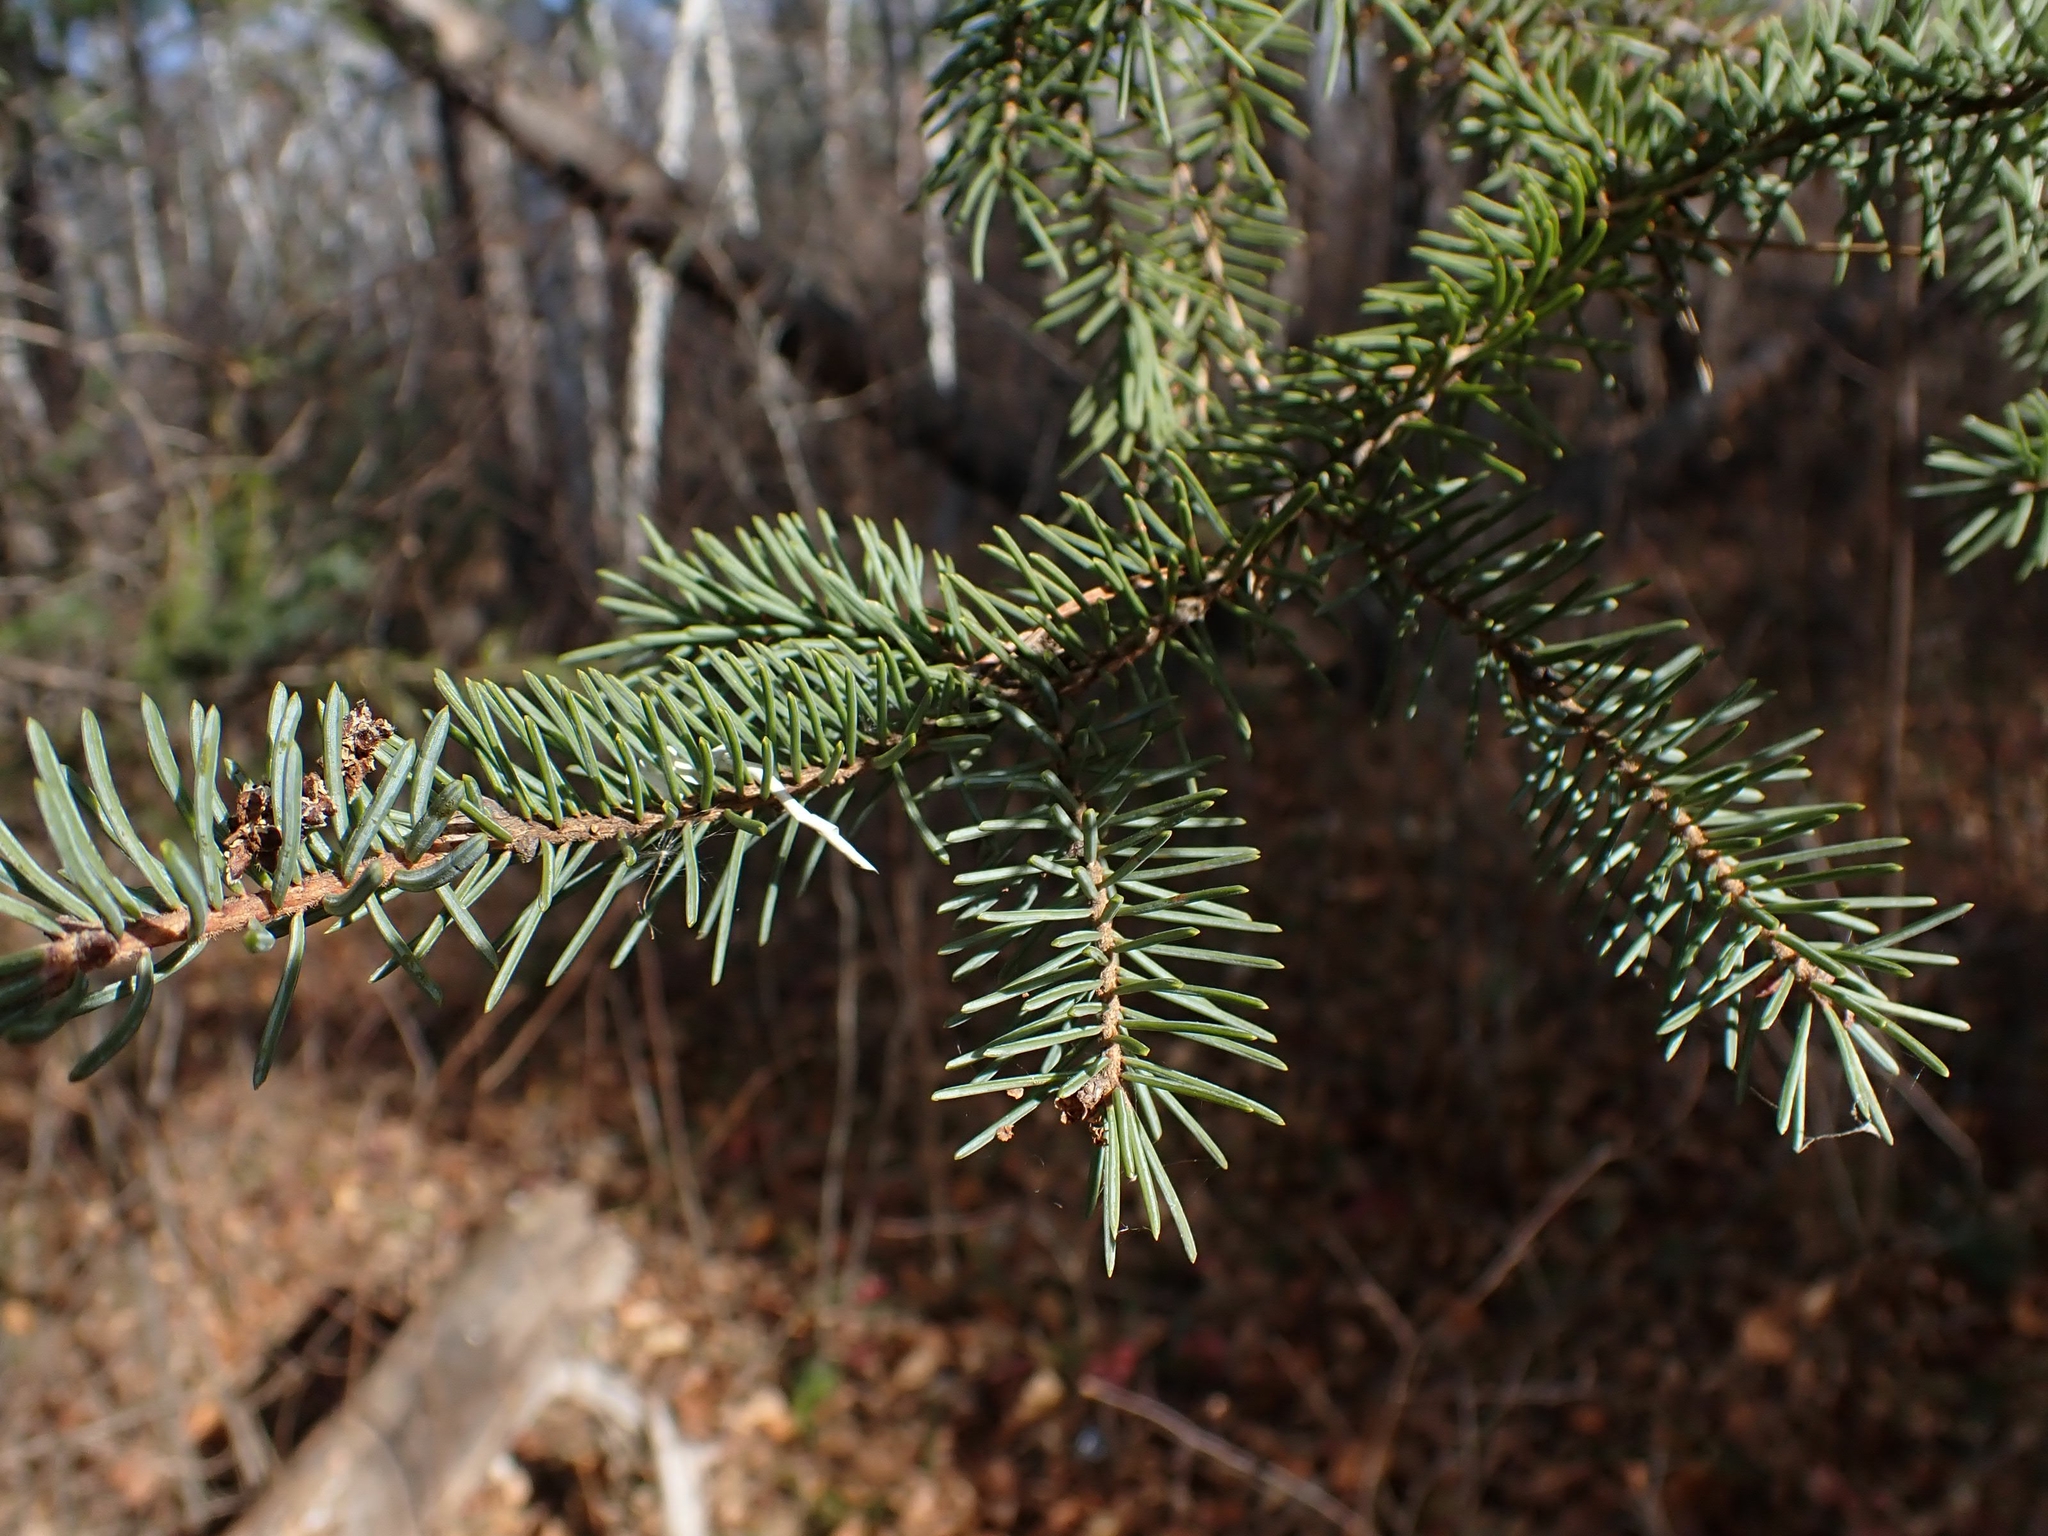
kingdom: Plantae
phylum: Tracheophyta
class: Pinopsida
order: Pinales
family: Pinaceae
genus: Picea
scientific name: Picea glauca
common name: White spruce
